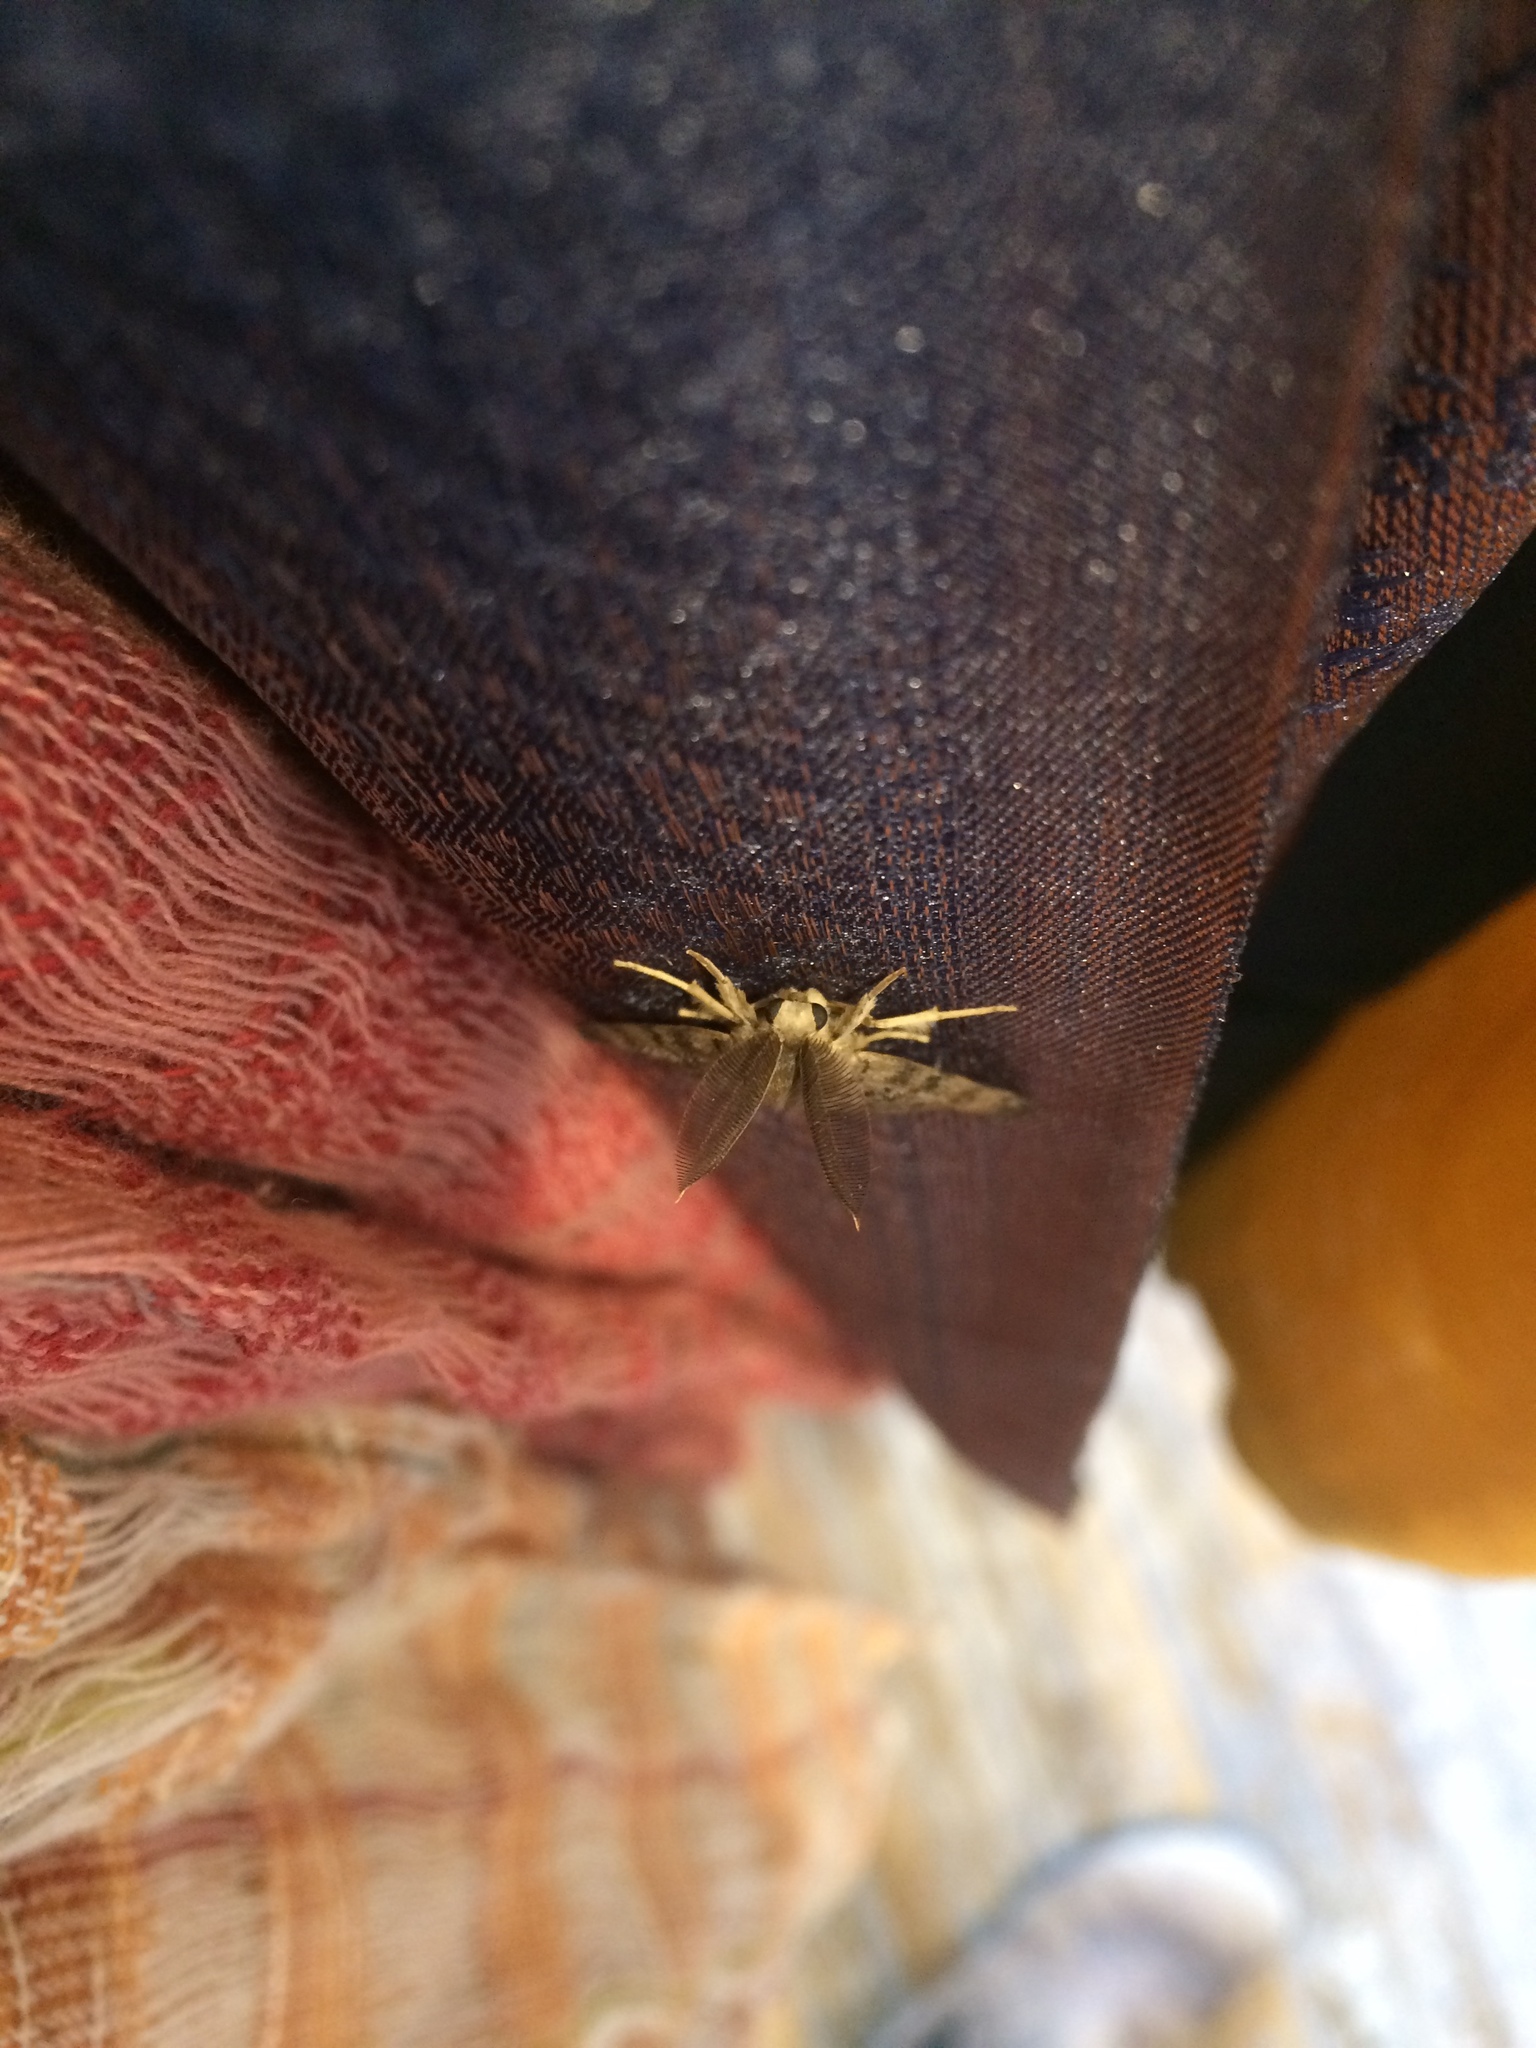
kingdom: Animalia
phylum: Arthropoda
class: Insecta
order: Lepidoptera
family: Erebidae
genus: Lymantria
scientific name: Lymantria dispar
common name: Gypsy moth
